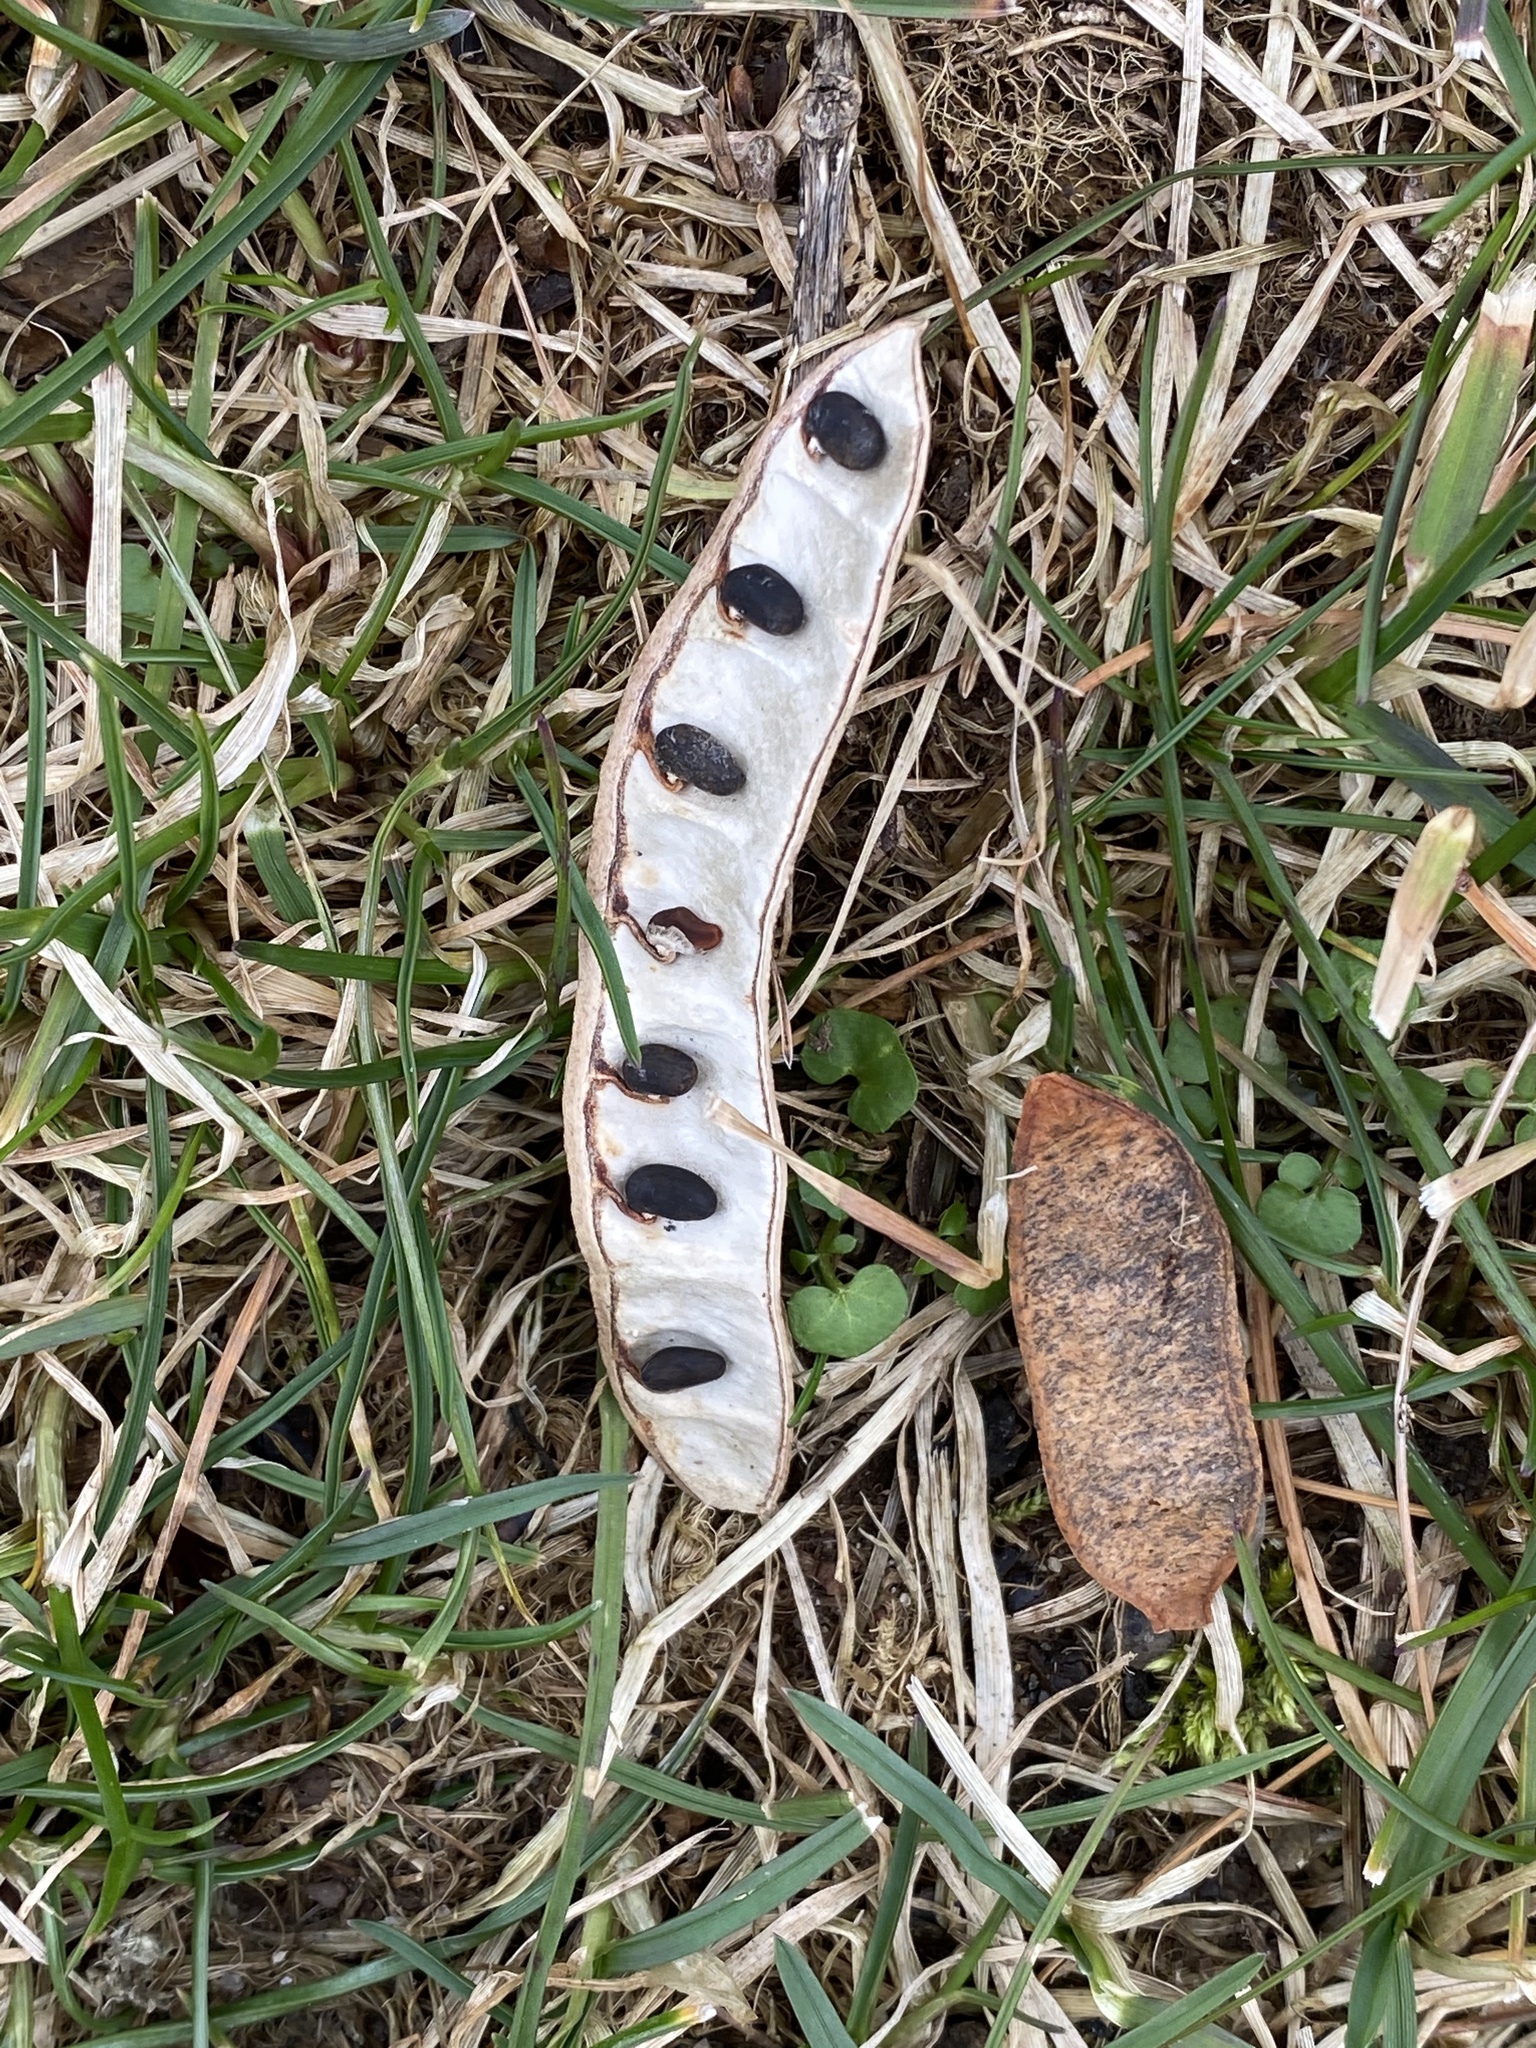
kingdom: Plantae
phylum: Tracheophyta
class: Magnoliopsida
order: Fabales
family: Fabaceae
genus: Robinia
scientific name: Robinia pseudoacacia
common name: Black locust
